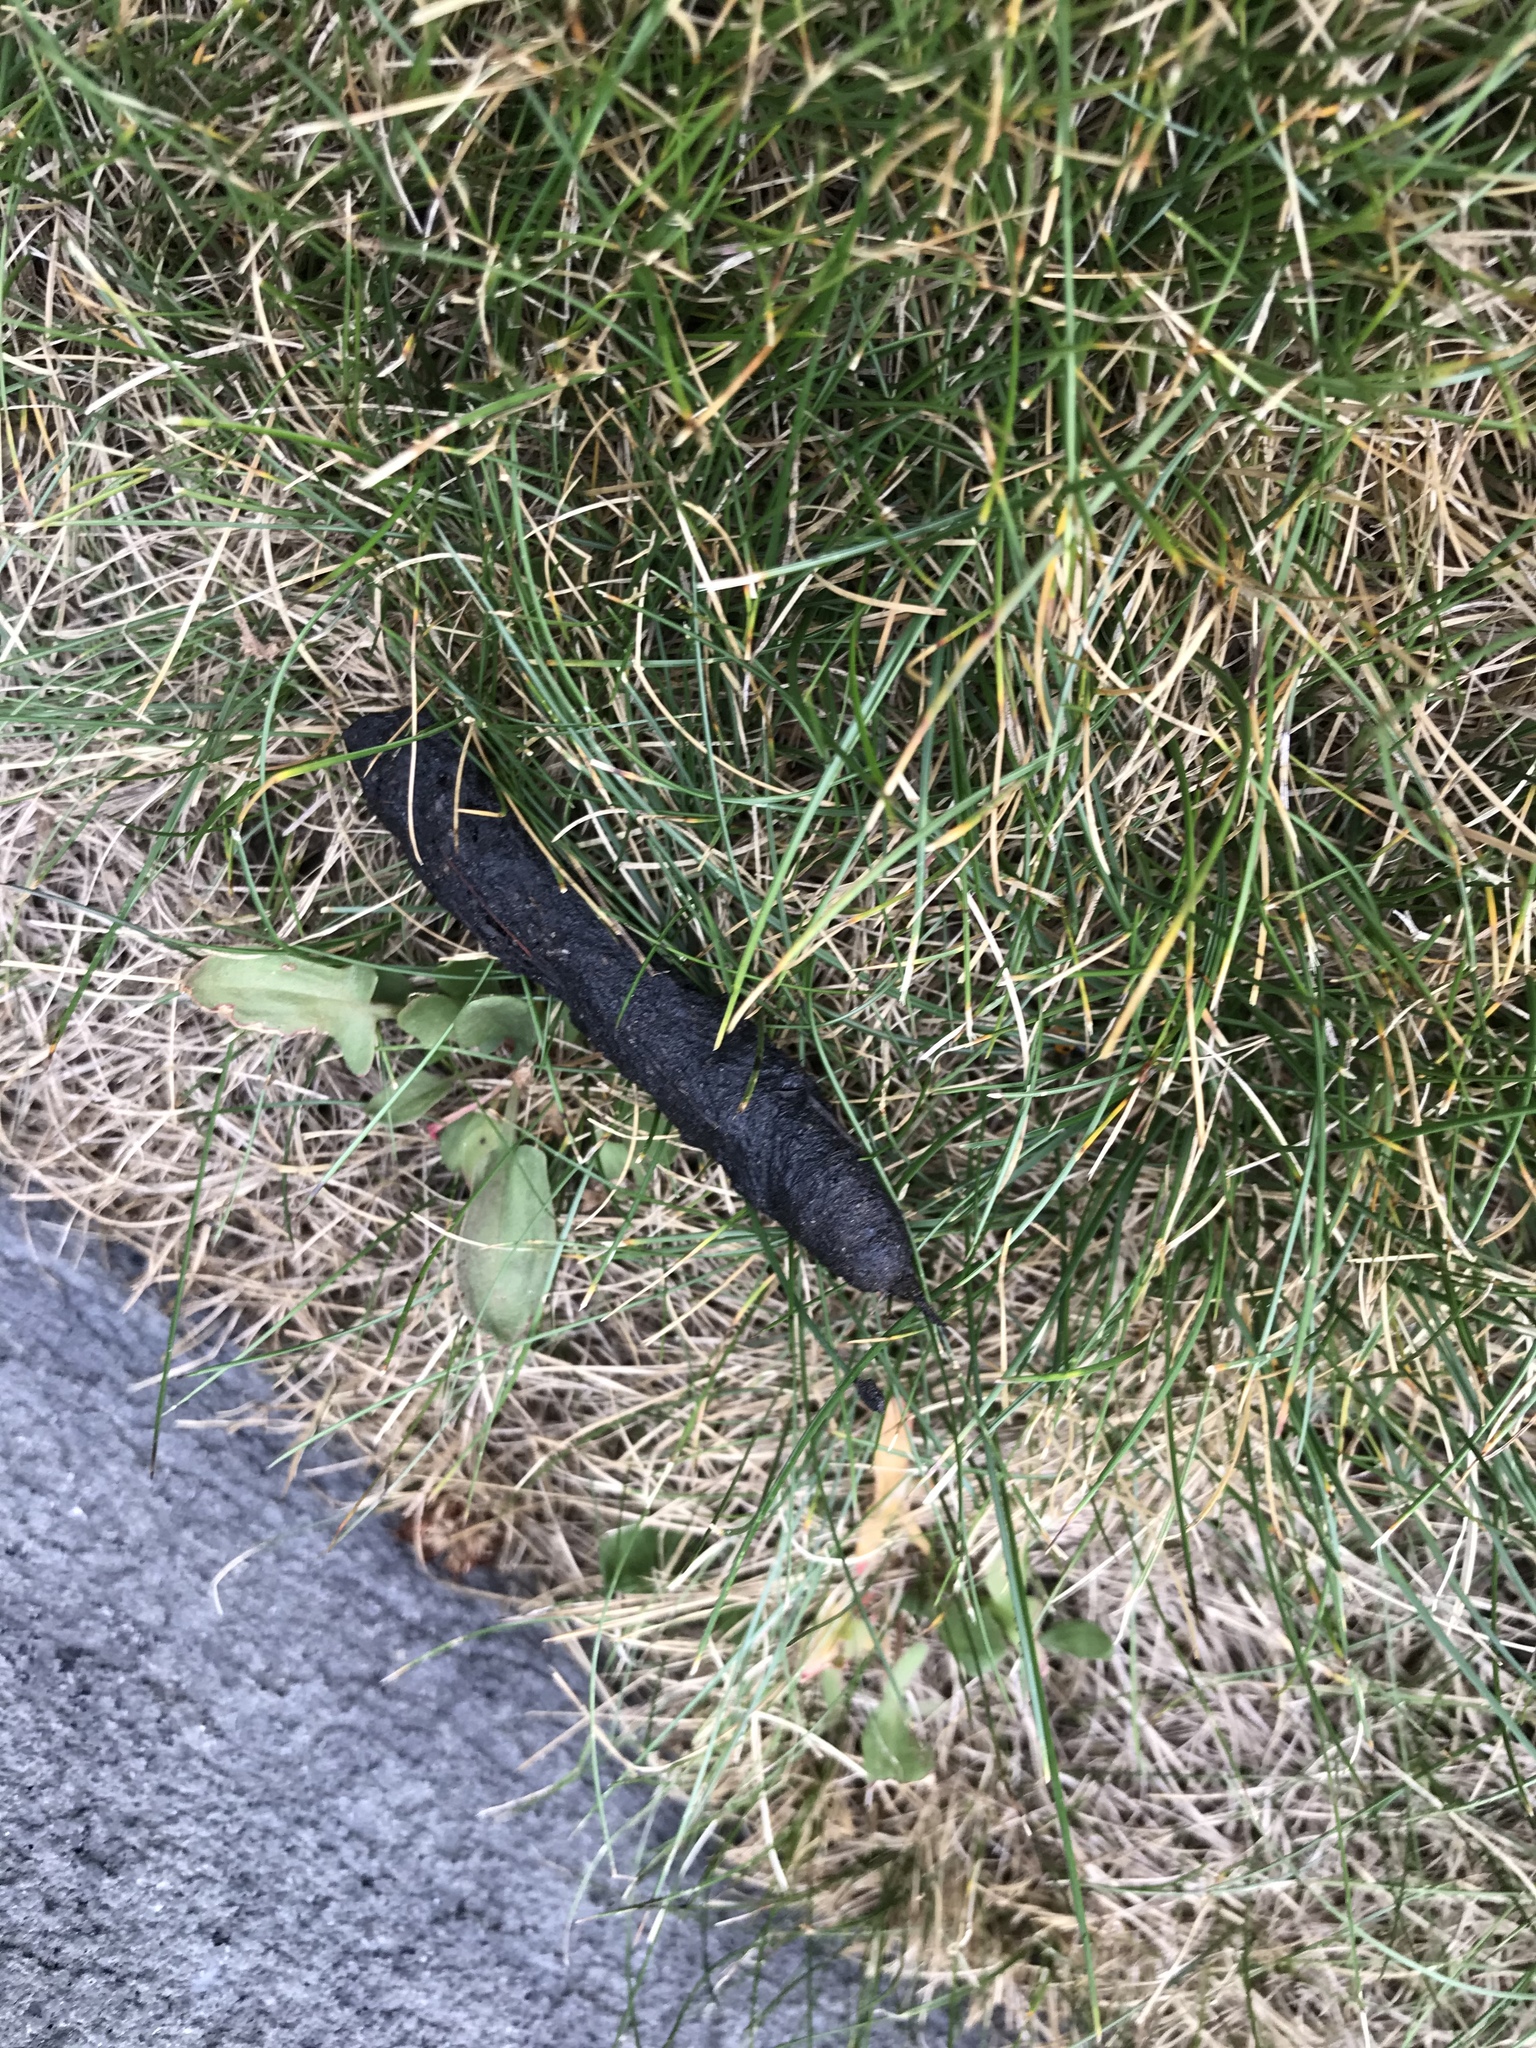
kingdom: Animalia
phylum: Chordata
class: Mammalia
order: Erinaceomorpha
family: Erinaceidae
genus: Erinaceus
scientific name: Erinaceus europaeus
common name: West european hedgehog
